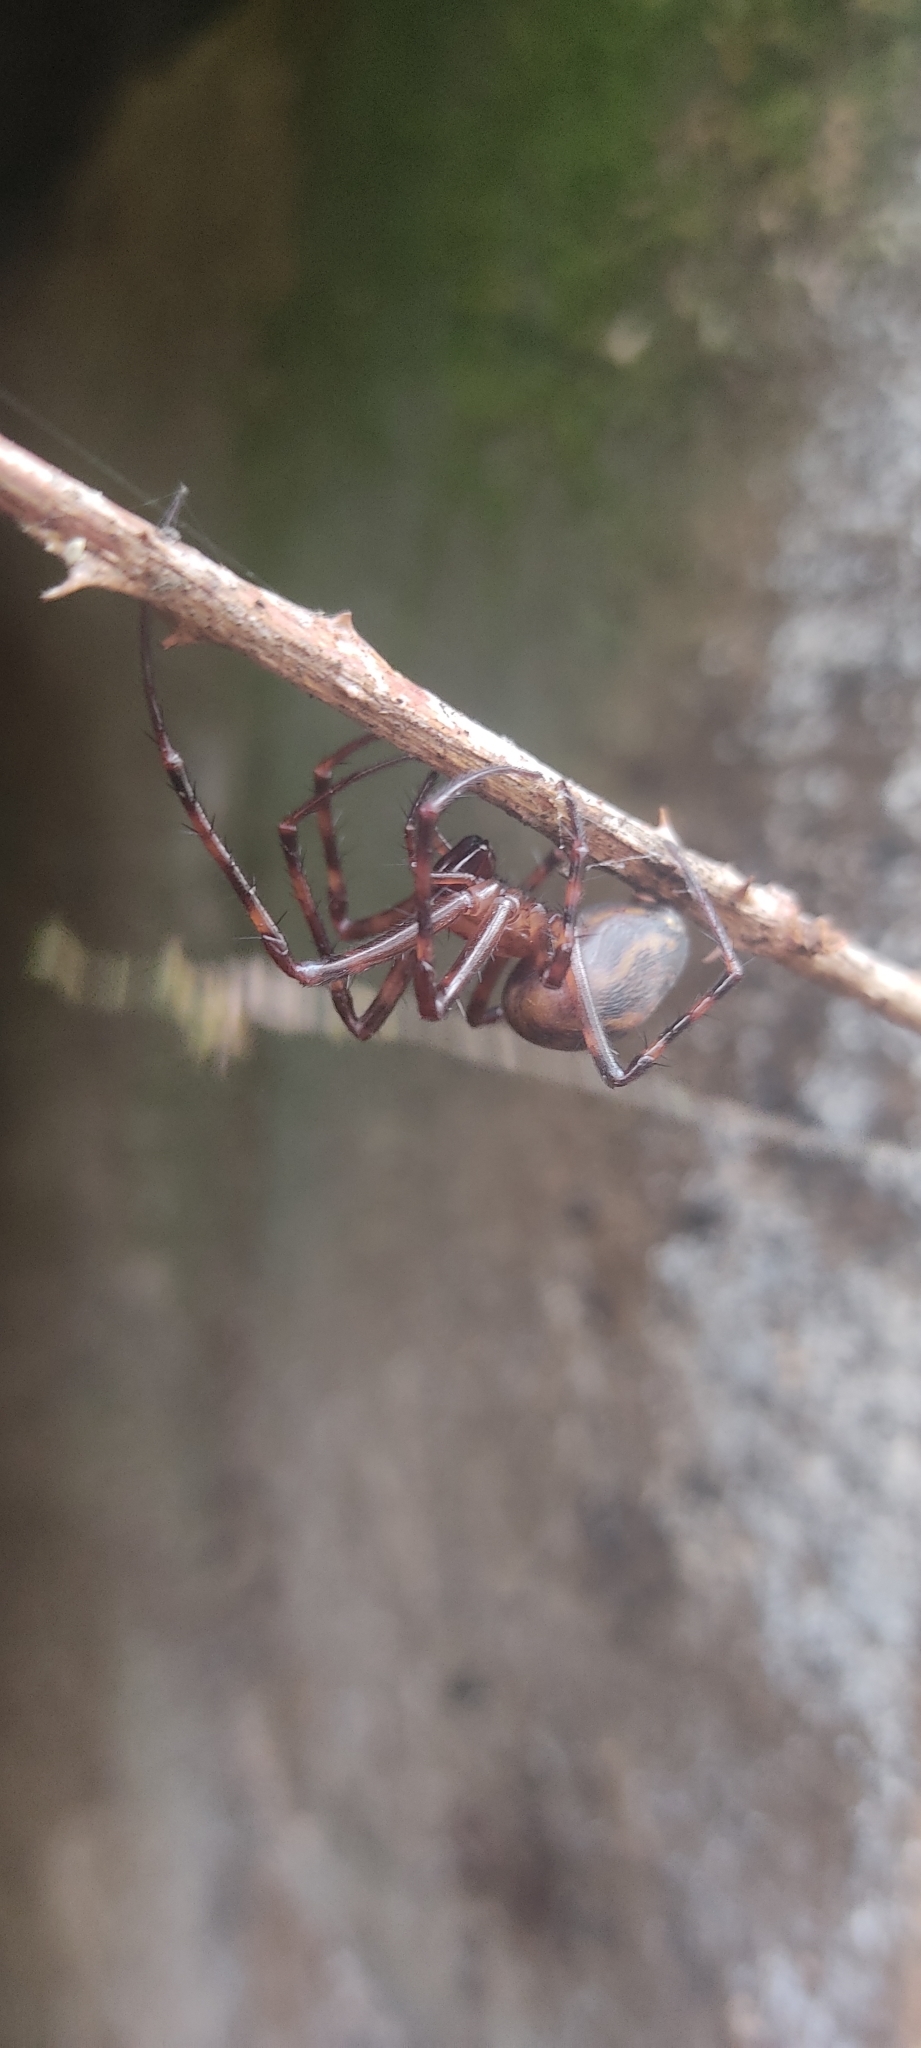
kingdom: Animalia
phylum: Arthropoda
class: Arachnida
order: Araneae
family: Tetragnathidae
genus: Meta
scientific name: Meta menardi
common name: Cave spider
